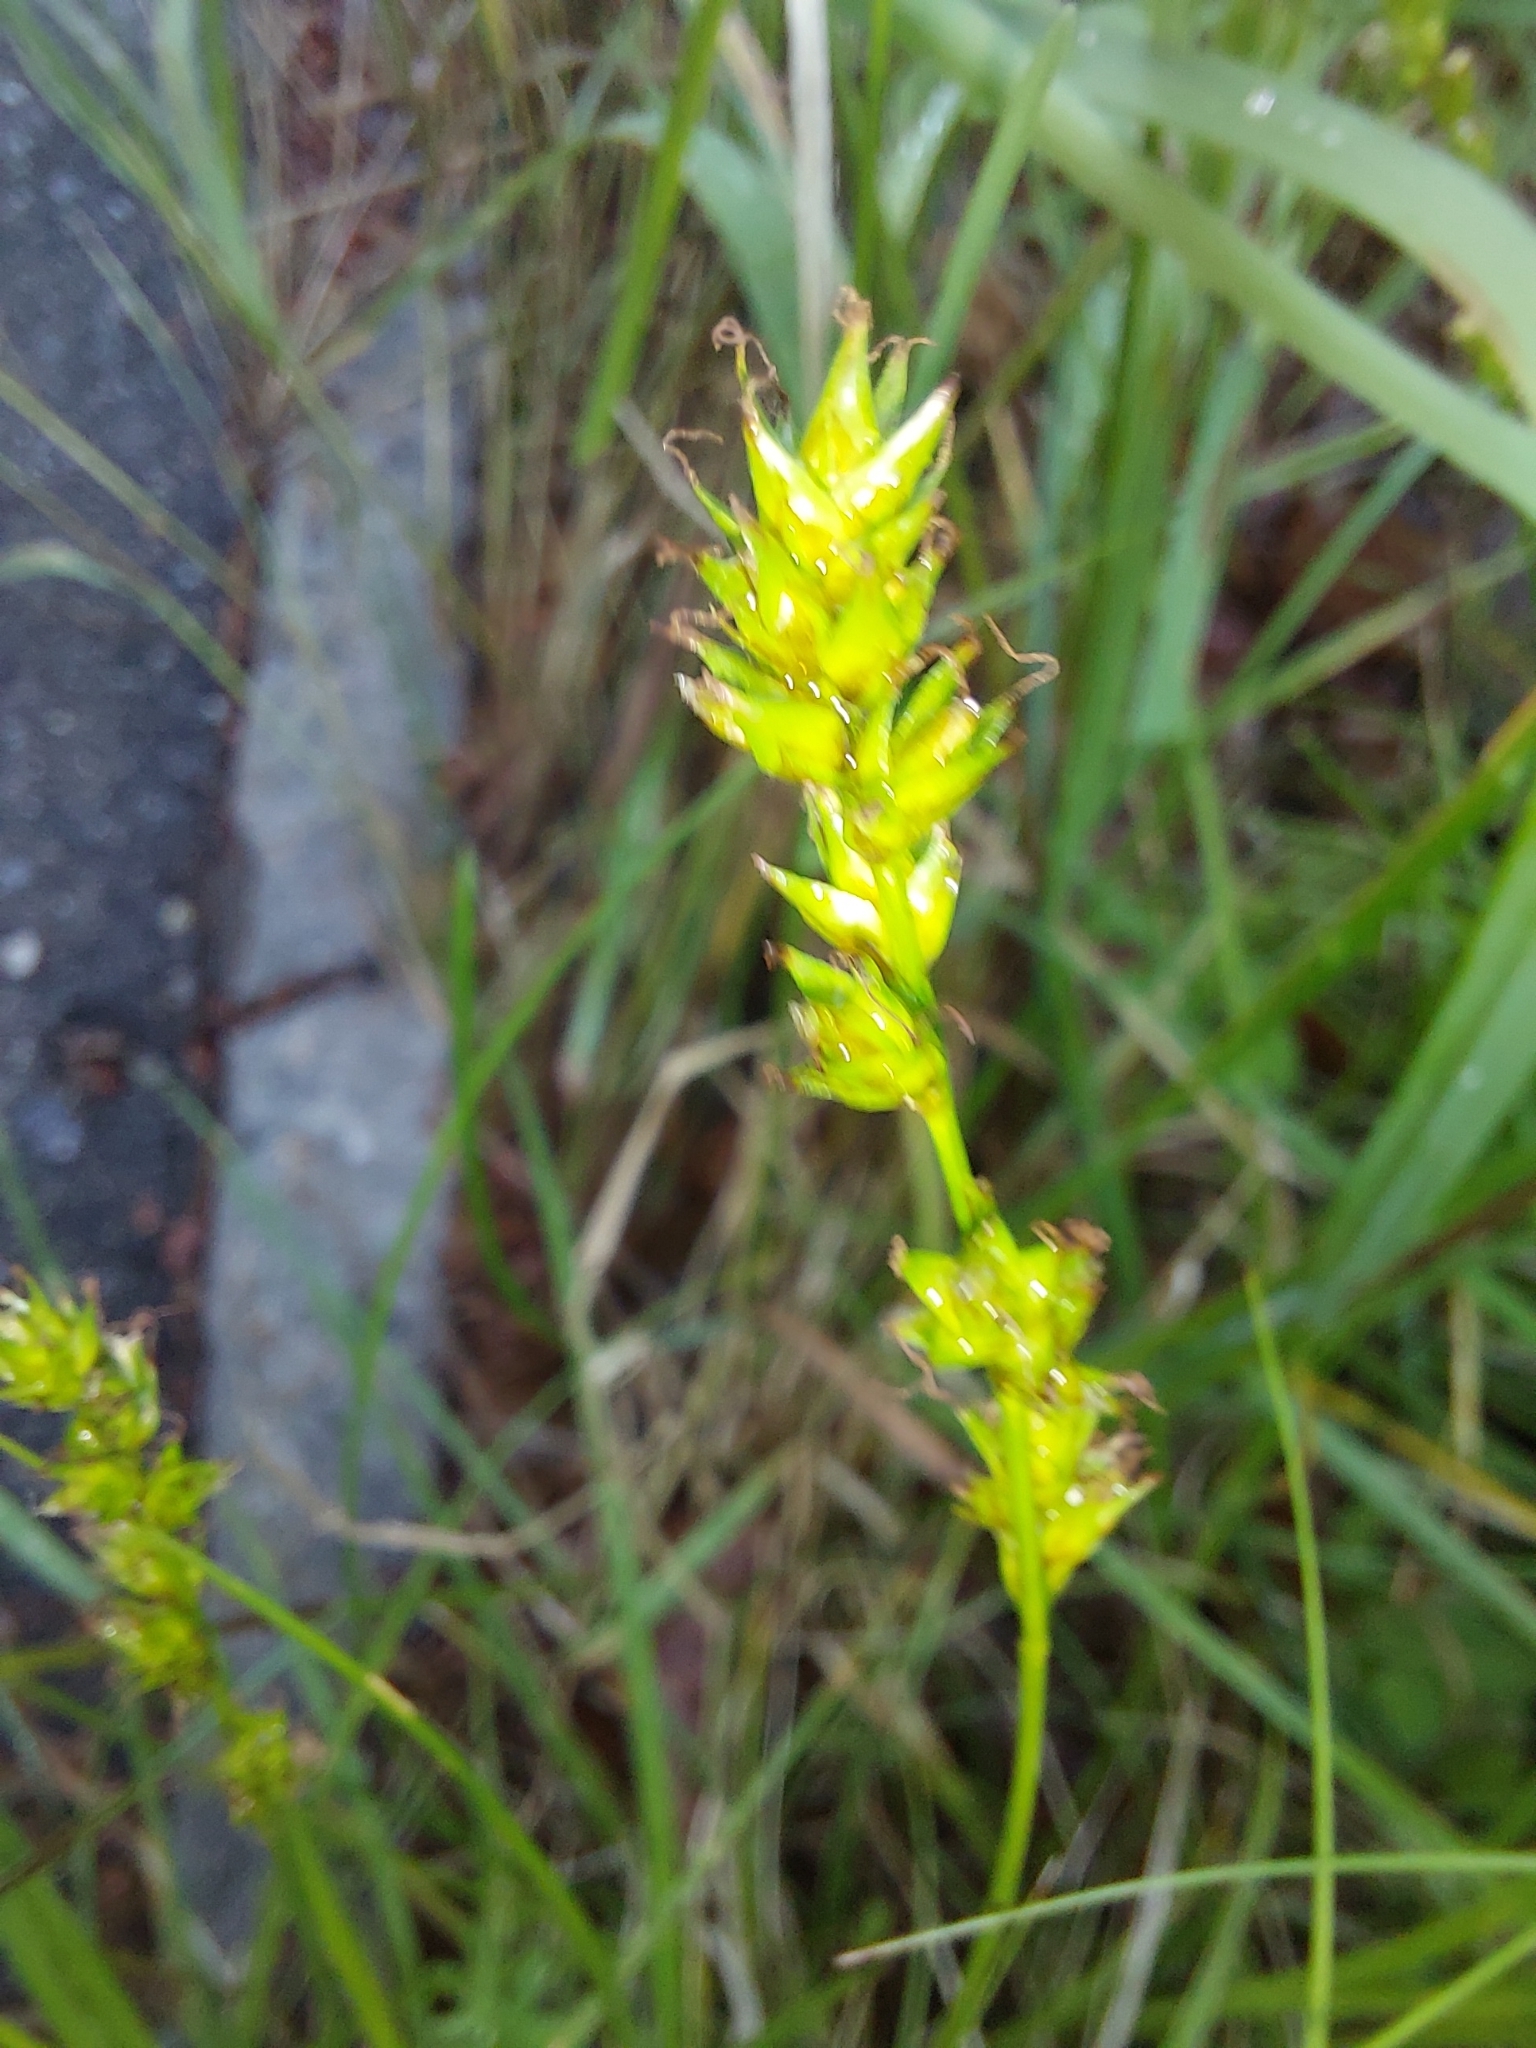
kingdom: Plantae
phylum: Tracheophyta
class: Liliopsida
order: Poales
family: Cyperaceae
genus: Carex
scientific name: Carex leersii
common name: Leers' sedge
